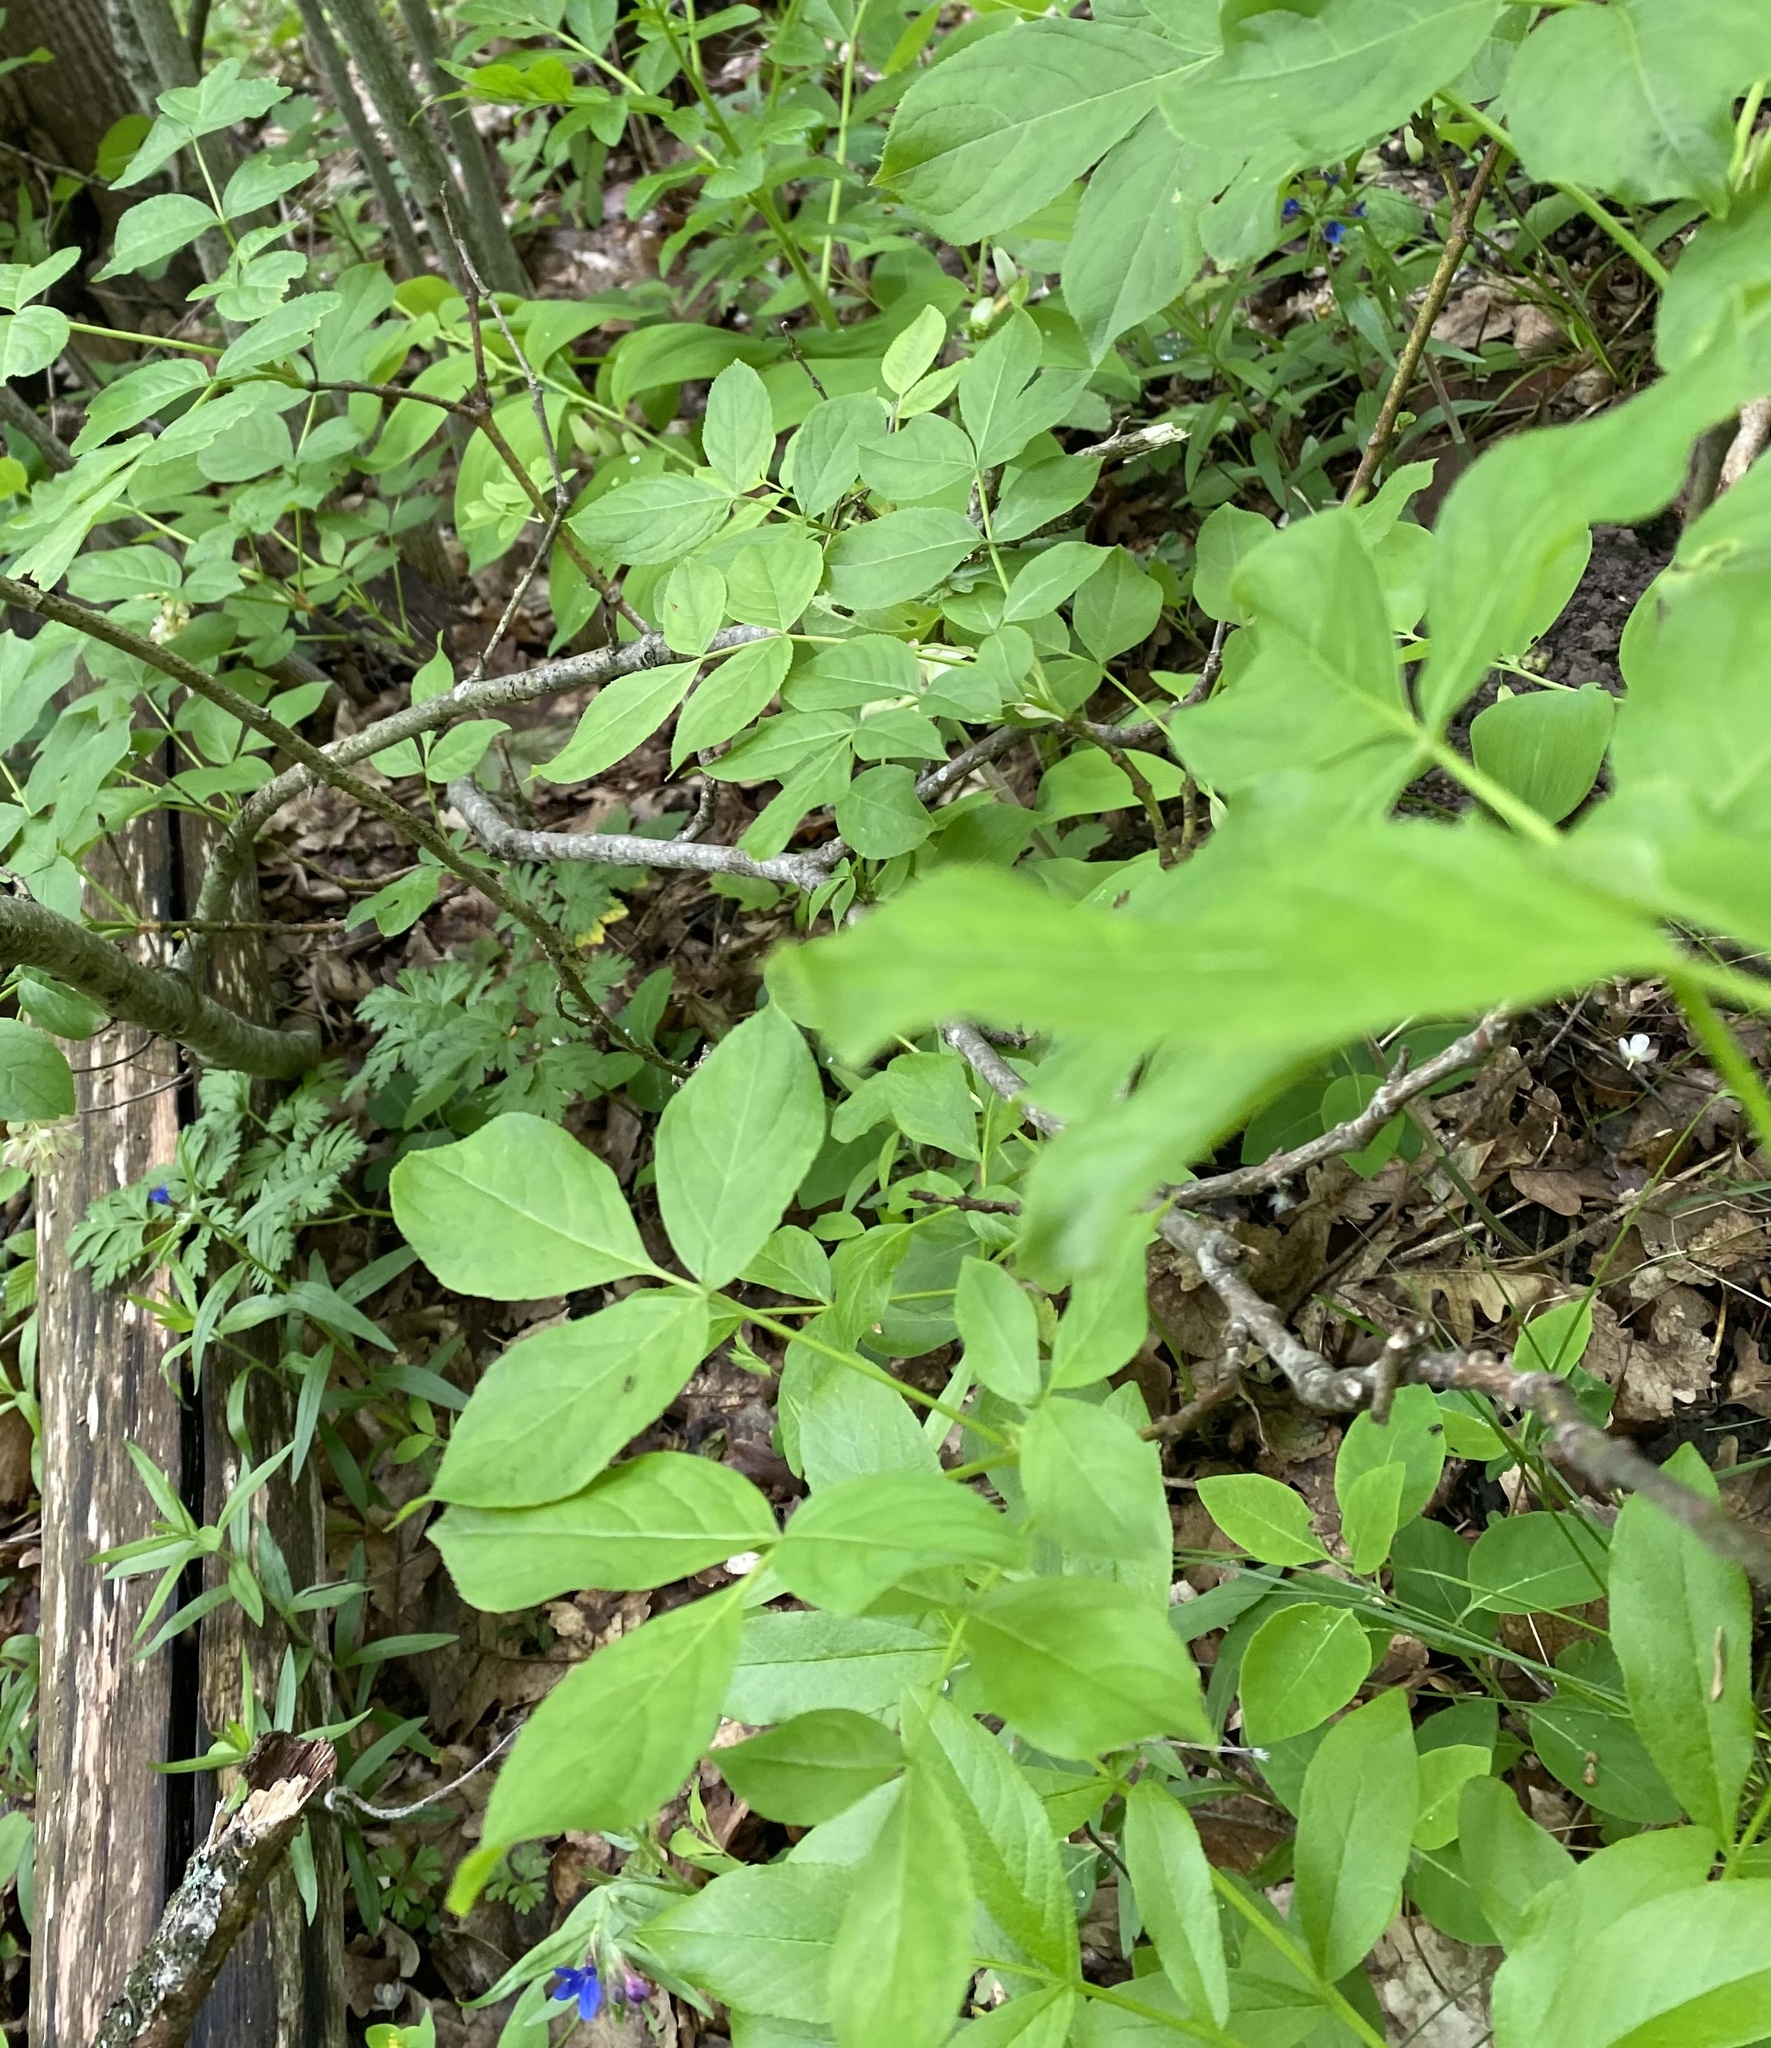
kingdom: Plantae
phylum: Tracheophyta
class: Magnoliopsida
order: Crossosomatales
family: Staphyleaceae
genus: Staphylea
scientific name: Staphylea pinnata
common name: Bladdernut
